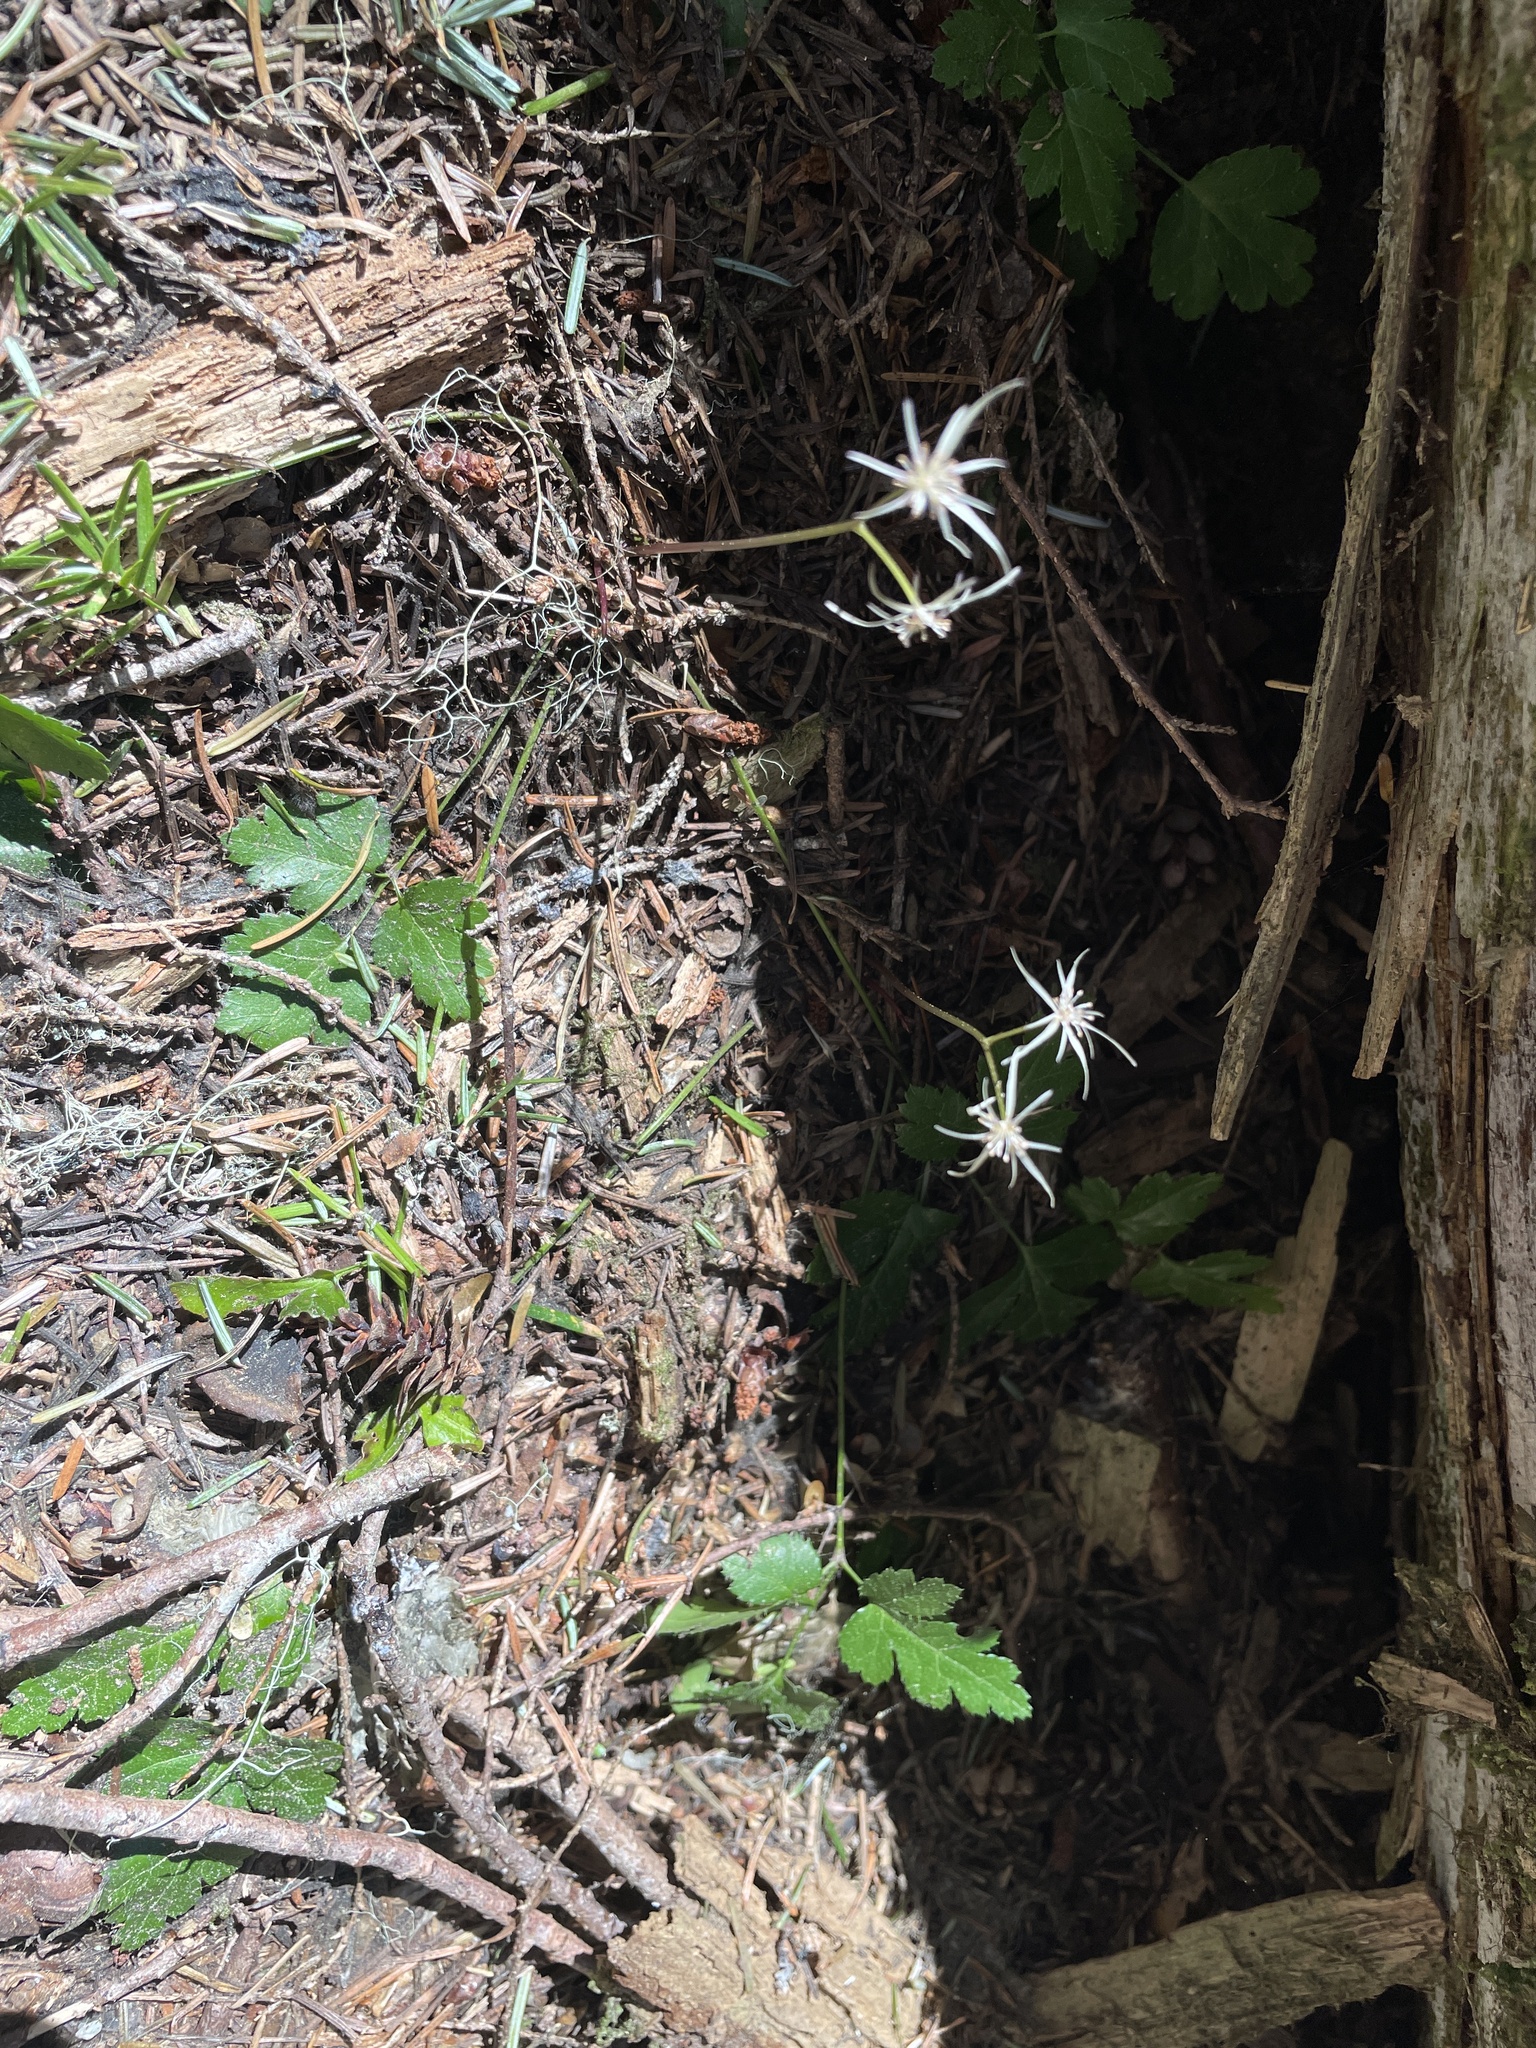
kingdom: Plantae
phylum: Tracheophyta
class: Magnoliopsida
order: Ranunculales
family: Ranunculaceae
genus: Coptis
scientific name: Coptis laciniata
